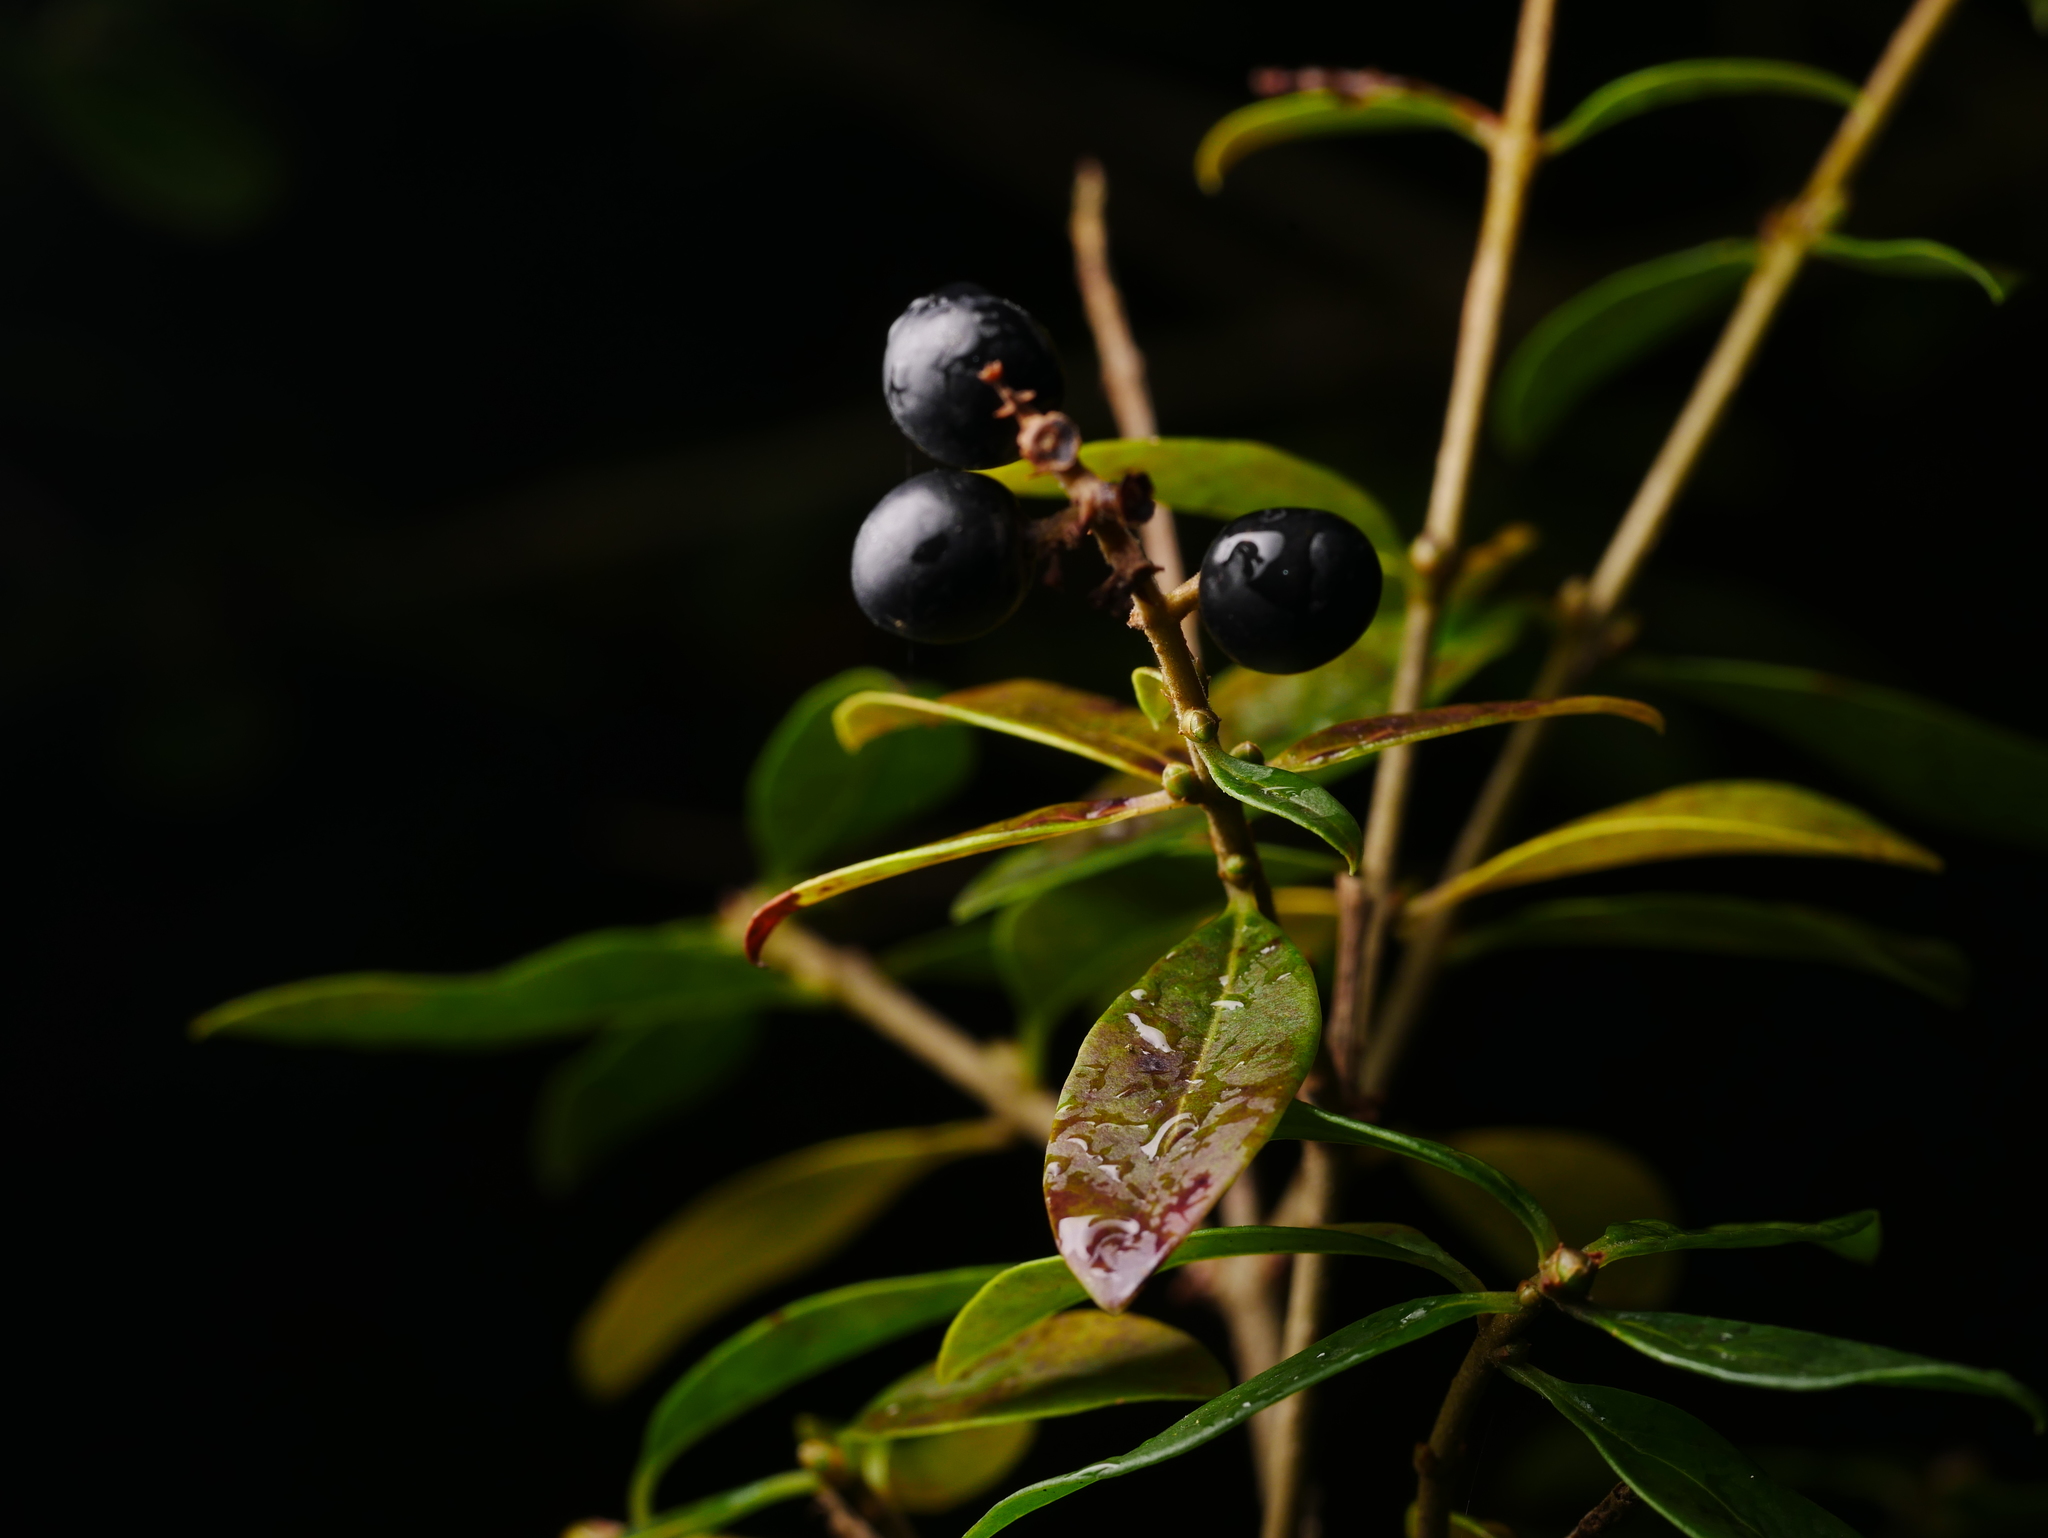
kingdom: Plantae
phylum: Tracheophyta
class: Magnoliopsida
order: Lamiales
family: Oleaceae
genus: Ligustrum
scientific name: Ligustrum vulgare
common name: Wild privet
